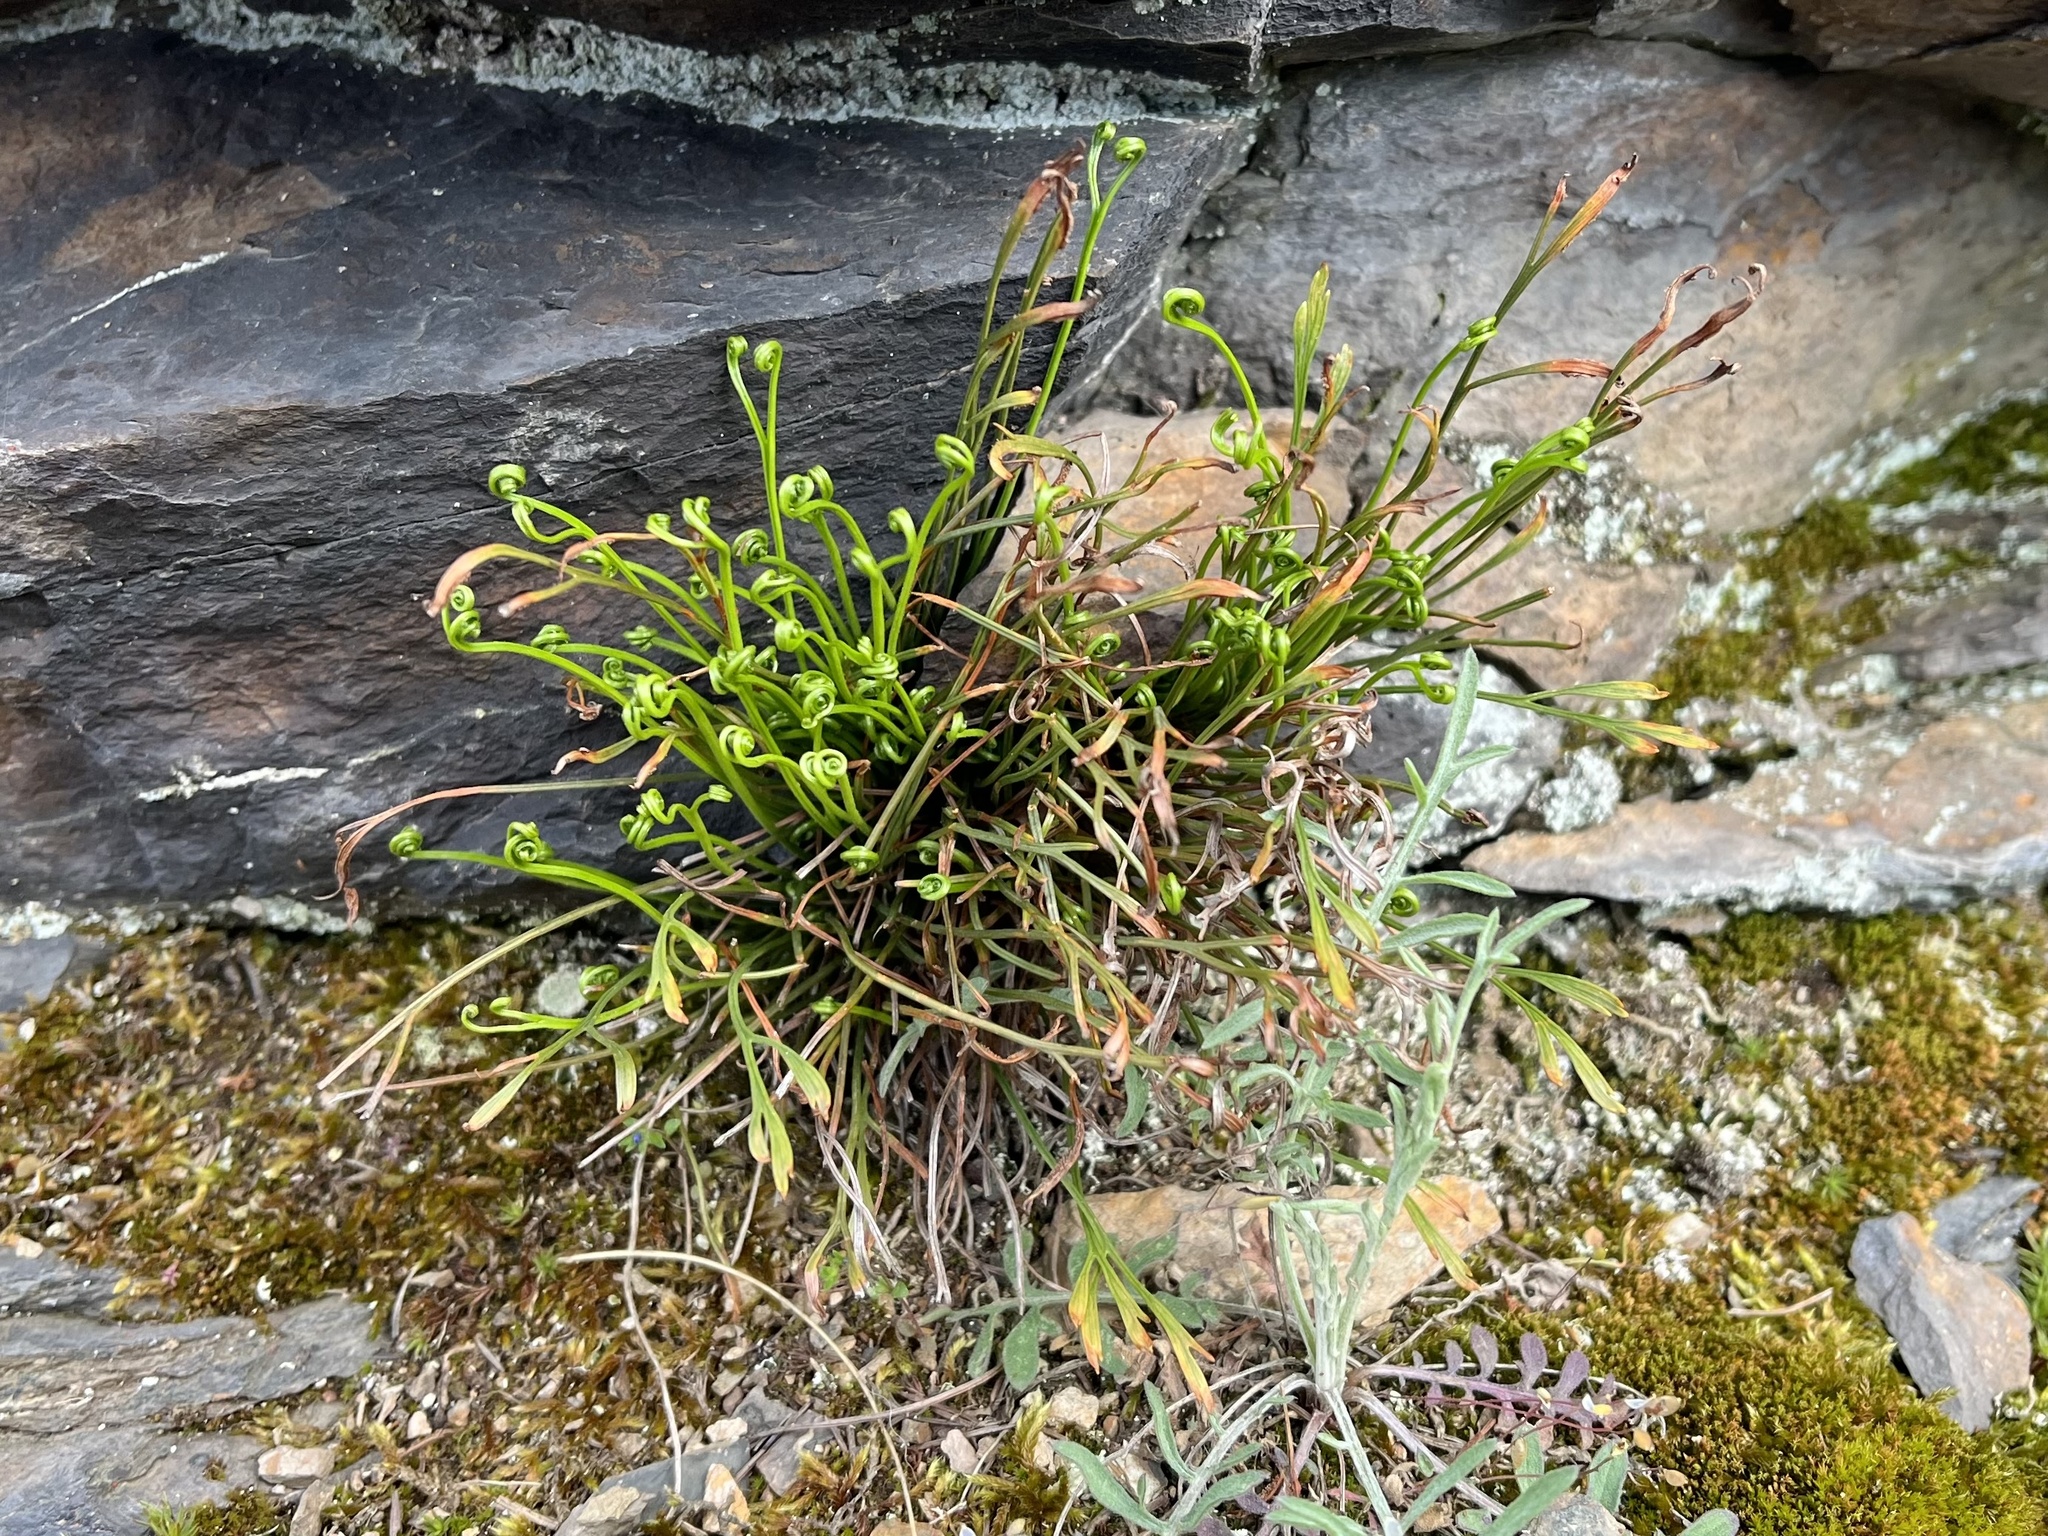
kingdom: Plantae
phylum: Tracheophyta
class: Polypodiopsida
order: Polypodiales
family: Aspleniaceae
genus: Asplenium
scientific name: Asplenium septentrionale
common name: Forked spleenwort
